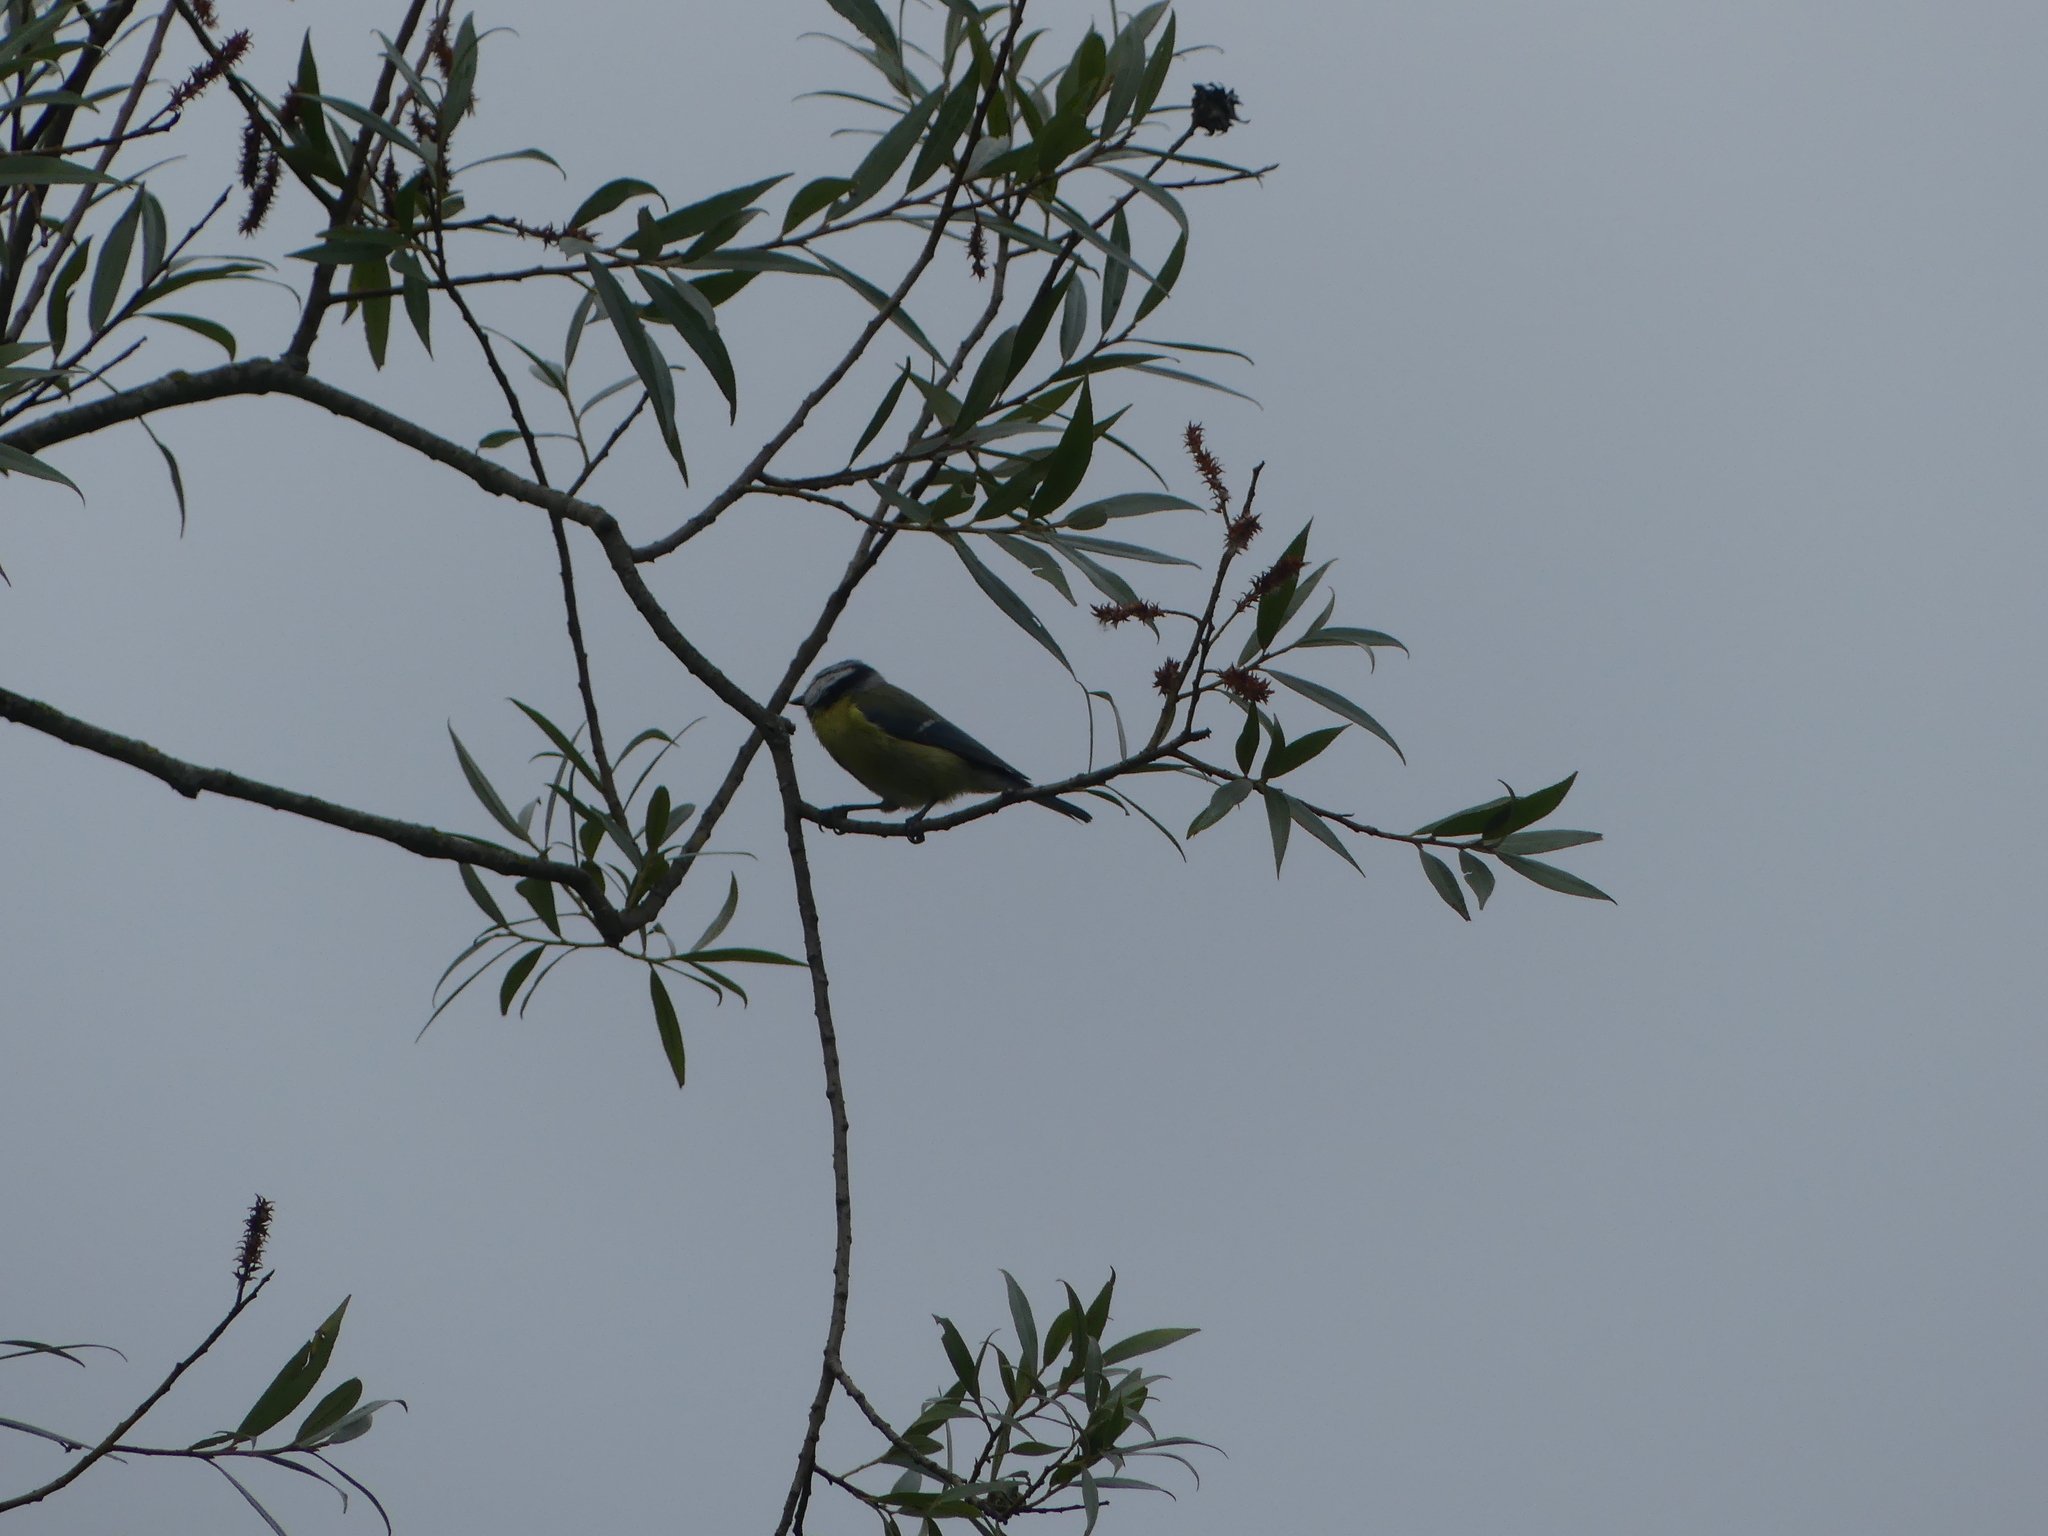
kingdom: Animalia
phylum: Chordata
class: Aves
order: Passeriformes
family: Paridae
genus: Cyanistes
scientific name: Cyanistes caeruleus
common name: Eurasian blue tit
